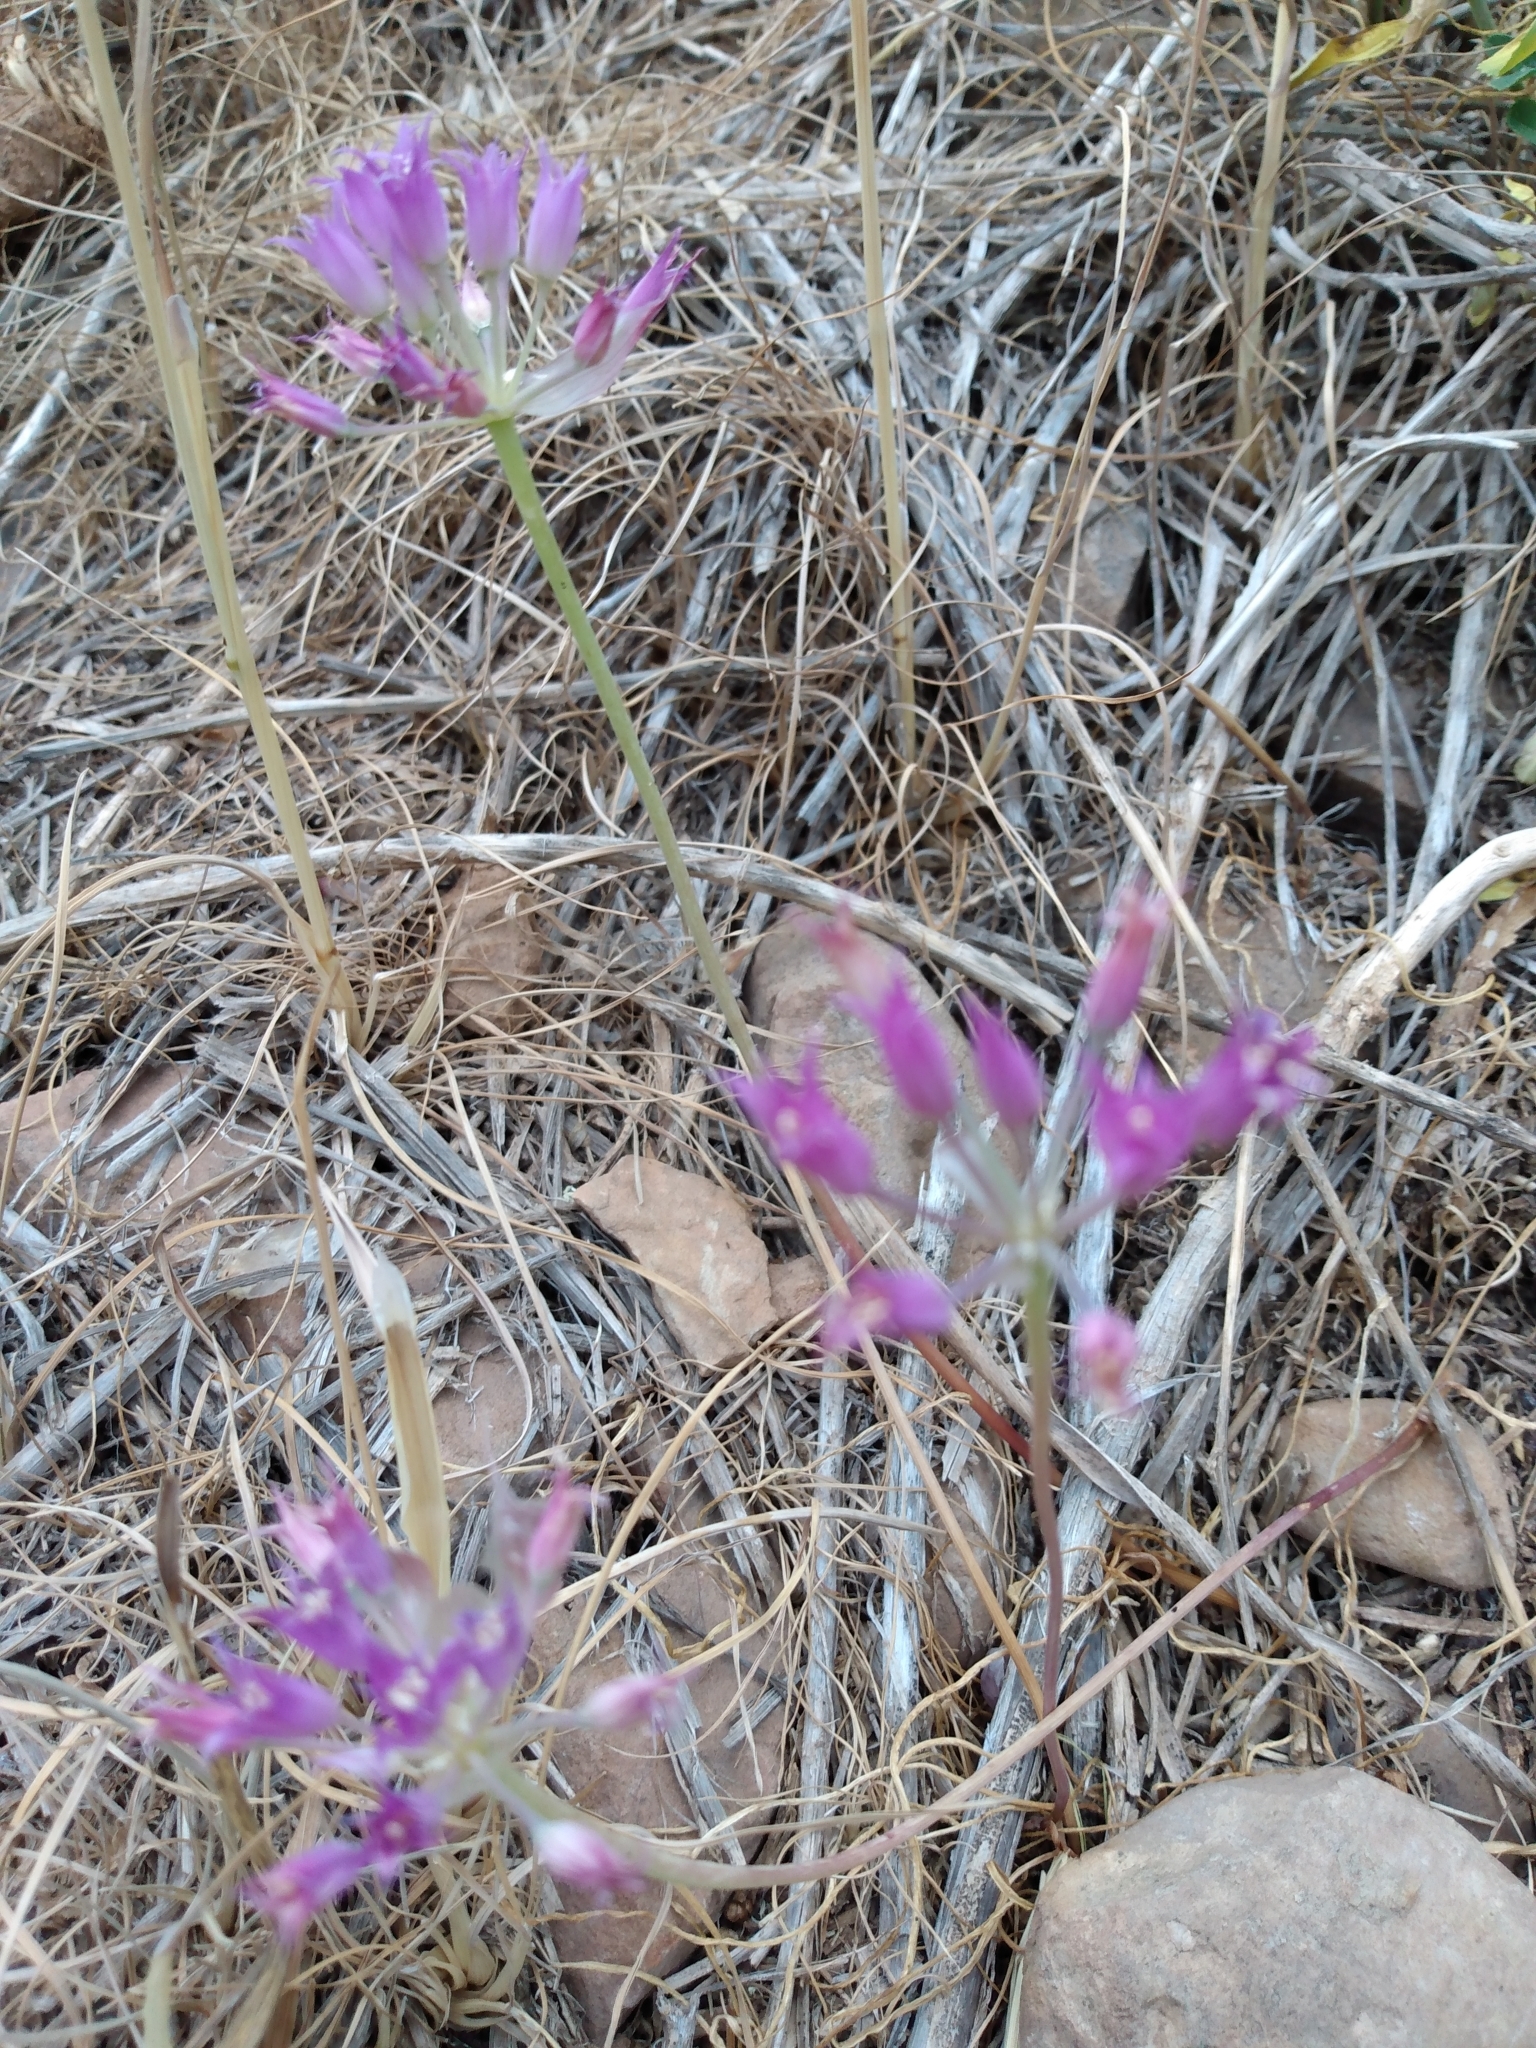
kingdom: Plantae
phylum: Tracheophyta
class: Liliopsida
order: Asparagales
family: Amaryllidaceae
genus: Allium
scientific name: Allium acuminatum
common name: Hooker's onion
